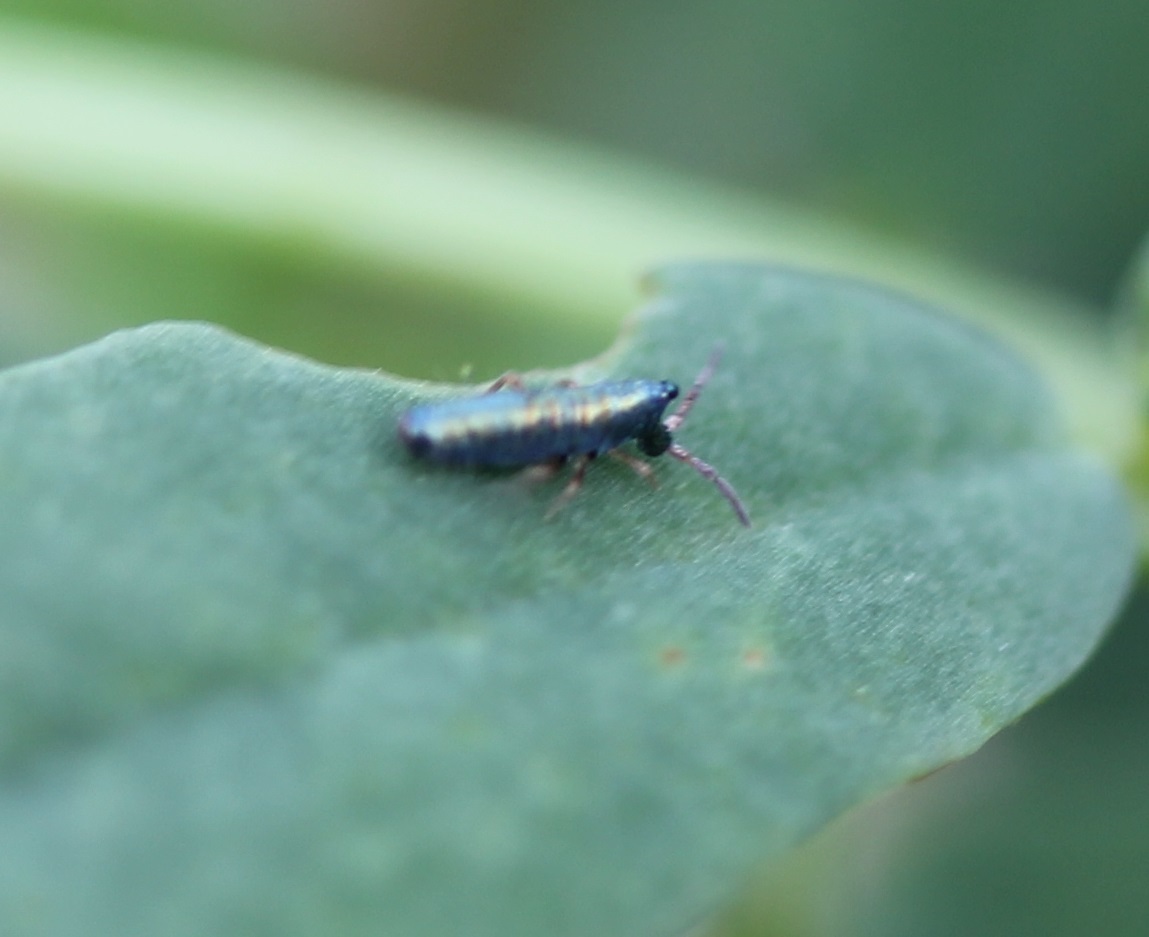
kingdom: Animalia
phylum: Arthropoda
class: Collembola
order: Entomobryomorpha
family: Entomobryidae
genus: Lepidocyrtus
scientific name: Lepidocyrtus paradoxus
